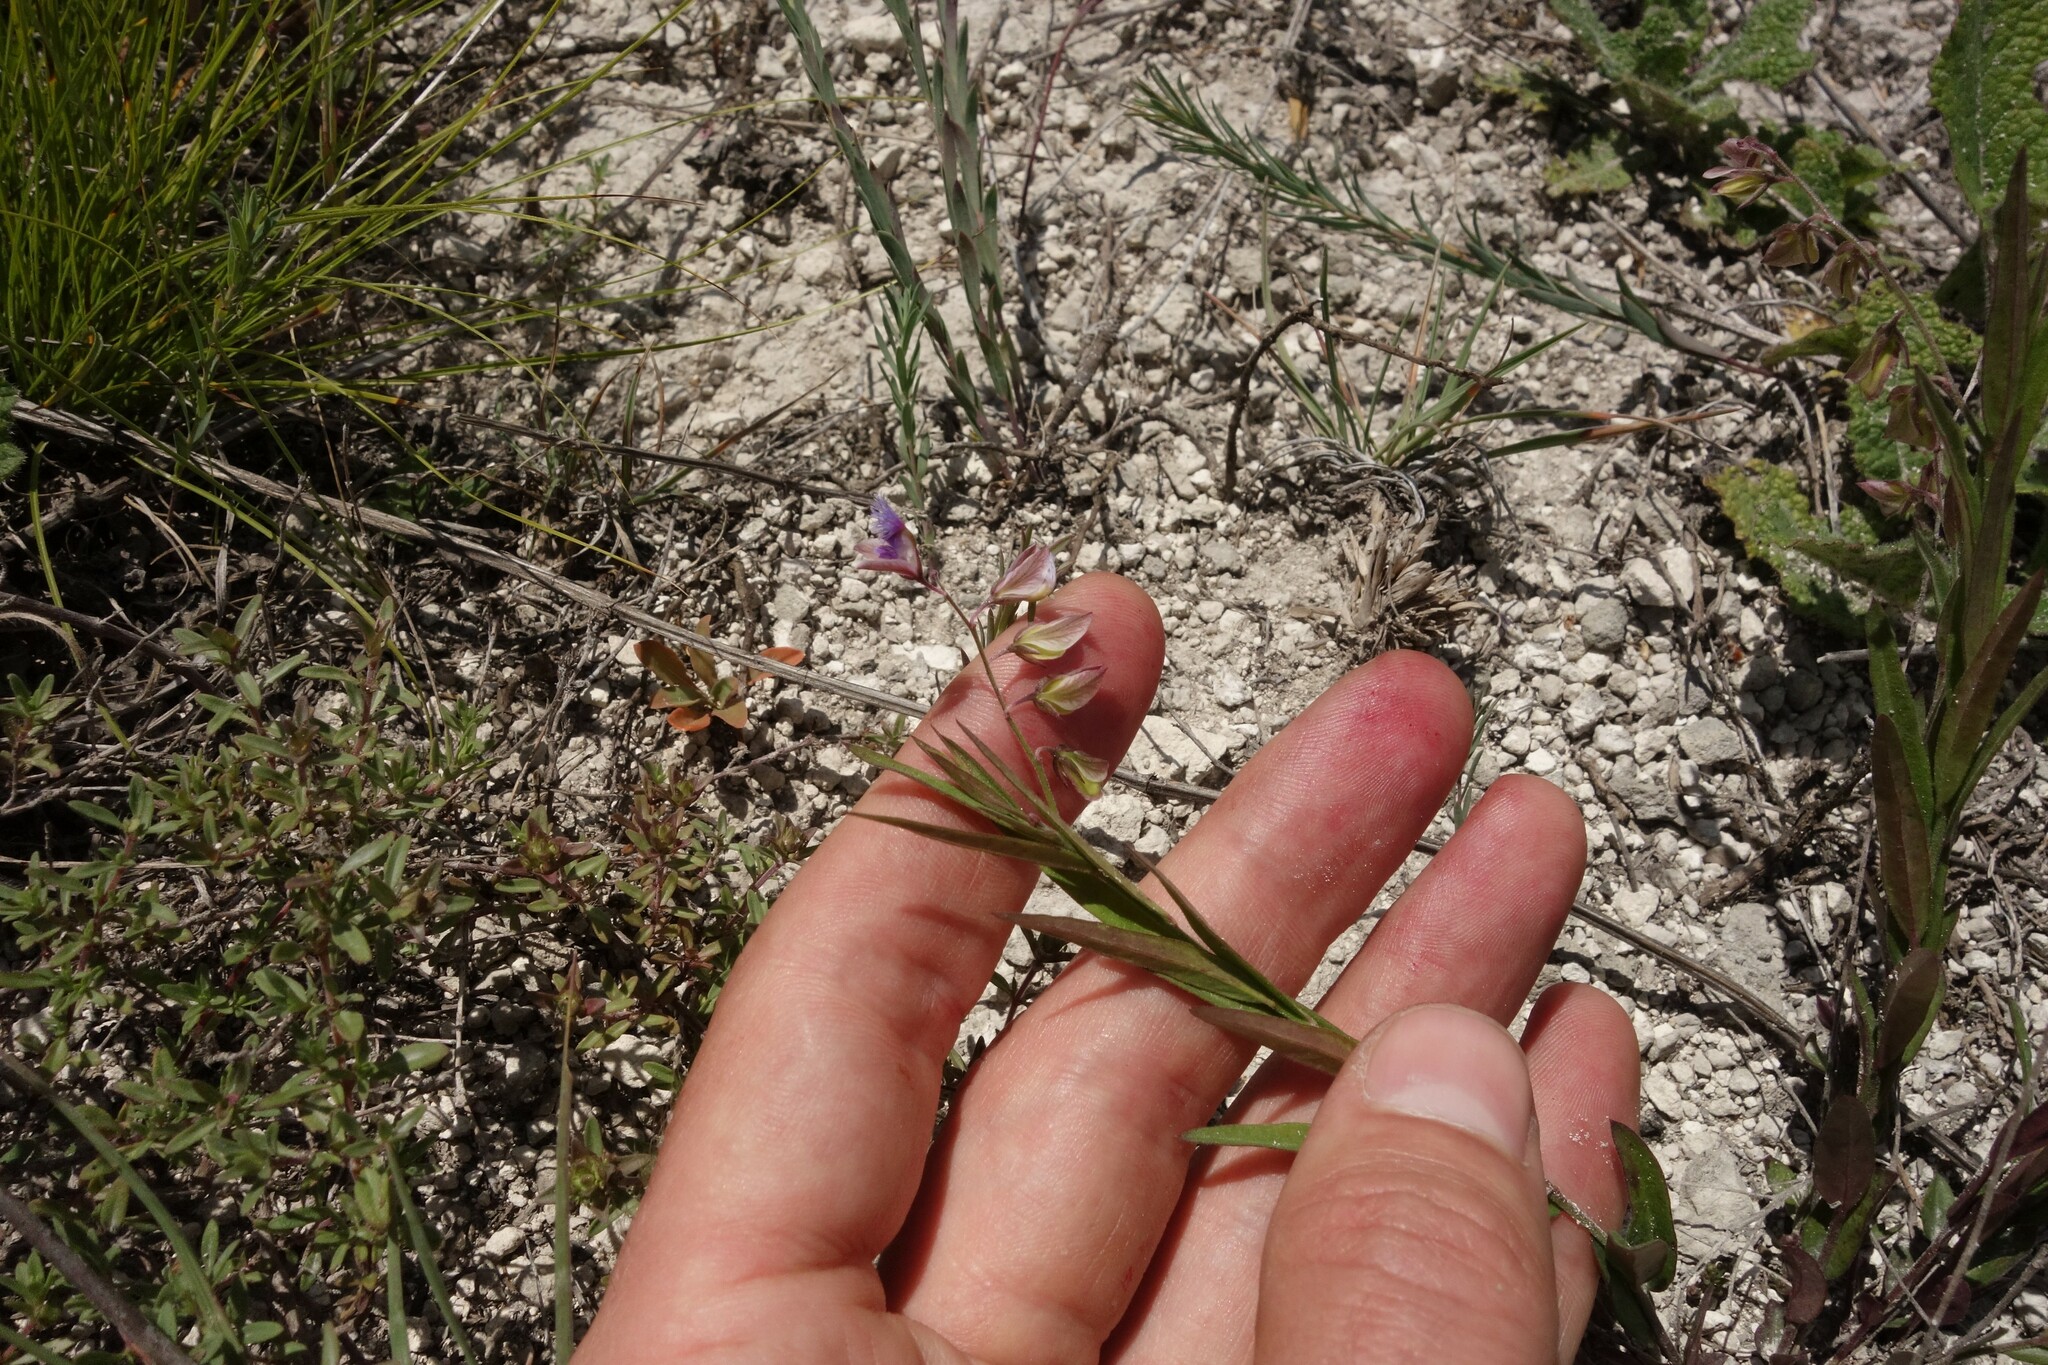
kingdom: Plantae
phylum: Tracheophyta
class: Magnoliopsida
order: Fabales
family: Polygalaceae
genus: Polygala
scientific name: Polygala sibirica
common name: Siberian polygala
